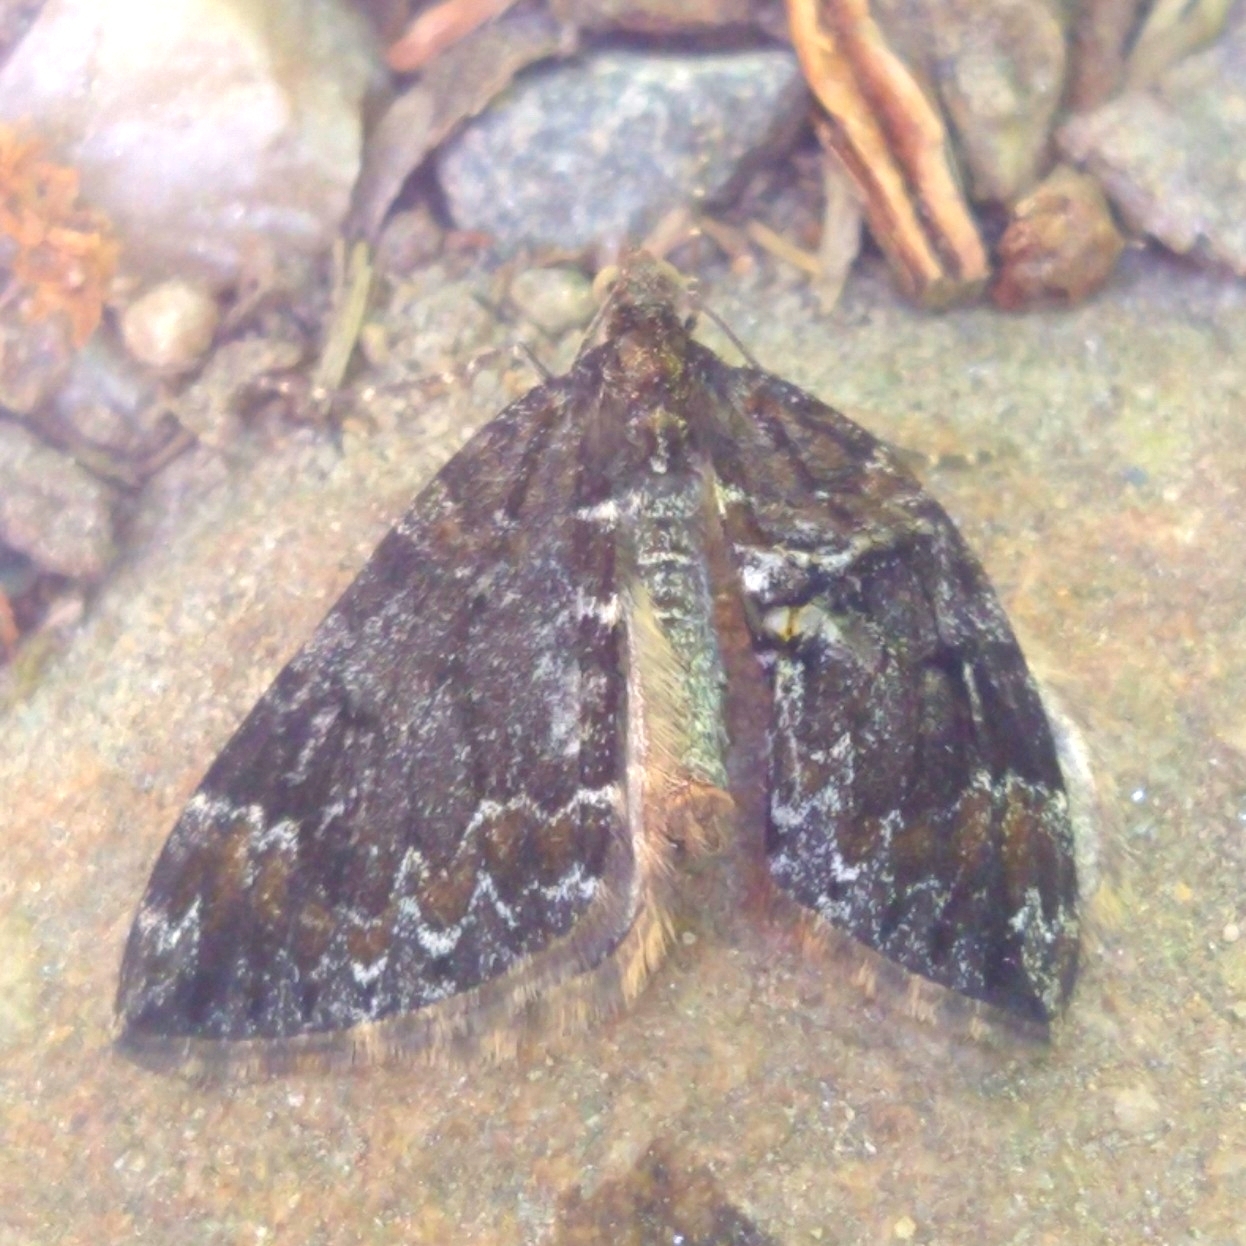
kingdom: Animalia
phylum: Arthropoda
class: Insecta
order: Lepidoptera
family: Geometridae
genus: Dysstroma
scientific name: Dysstroma truncata
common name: Common marbled carpet
